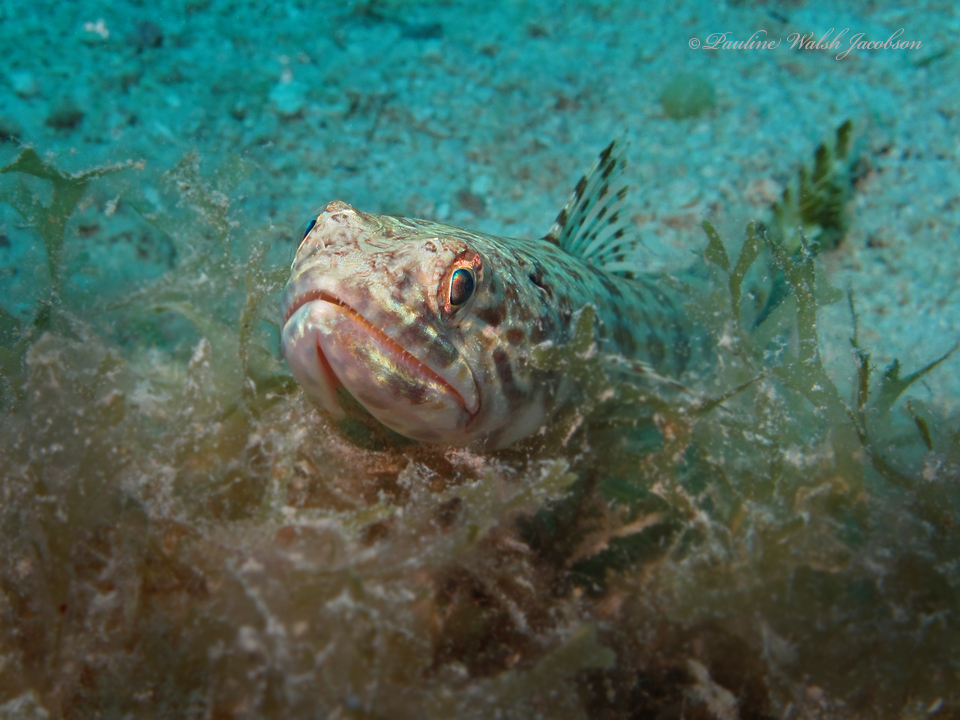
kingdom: Animalia
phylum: Chordata
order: Aulopiformes
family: Synodontidae
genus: Synodus
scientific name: Synodus intermedius
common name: Sand diver
